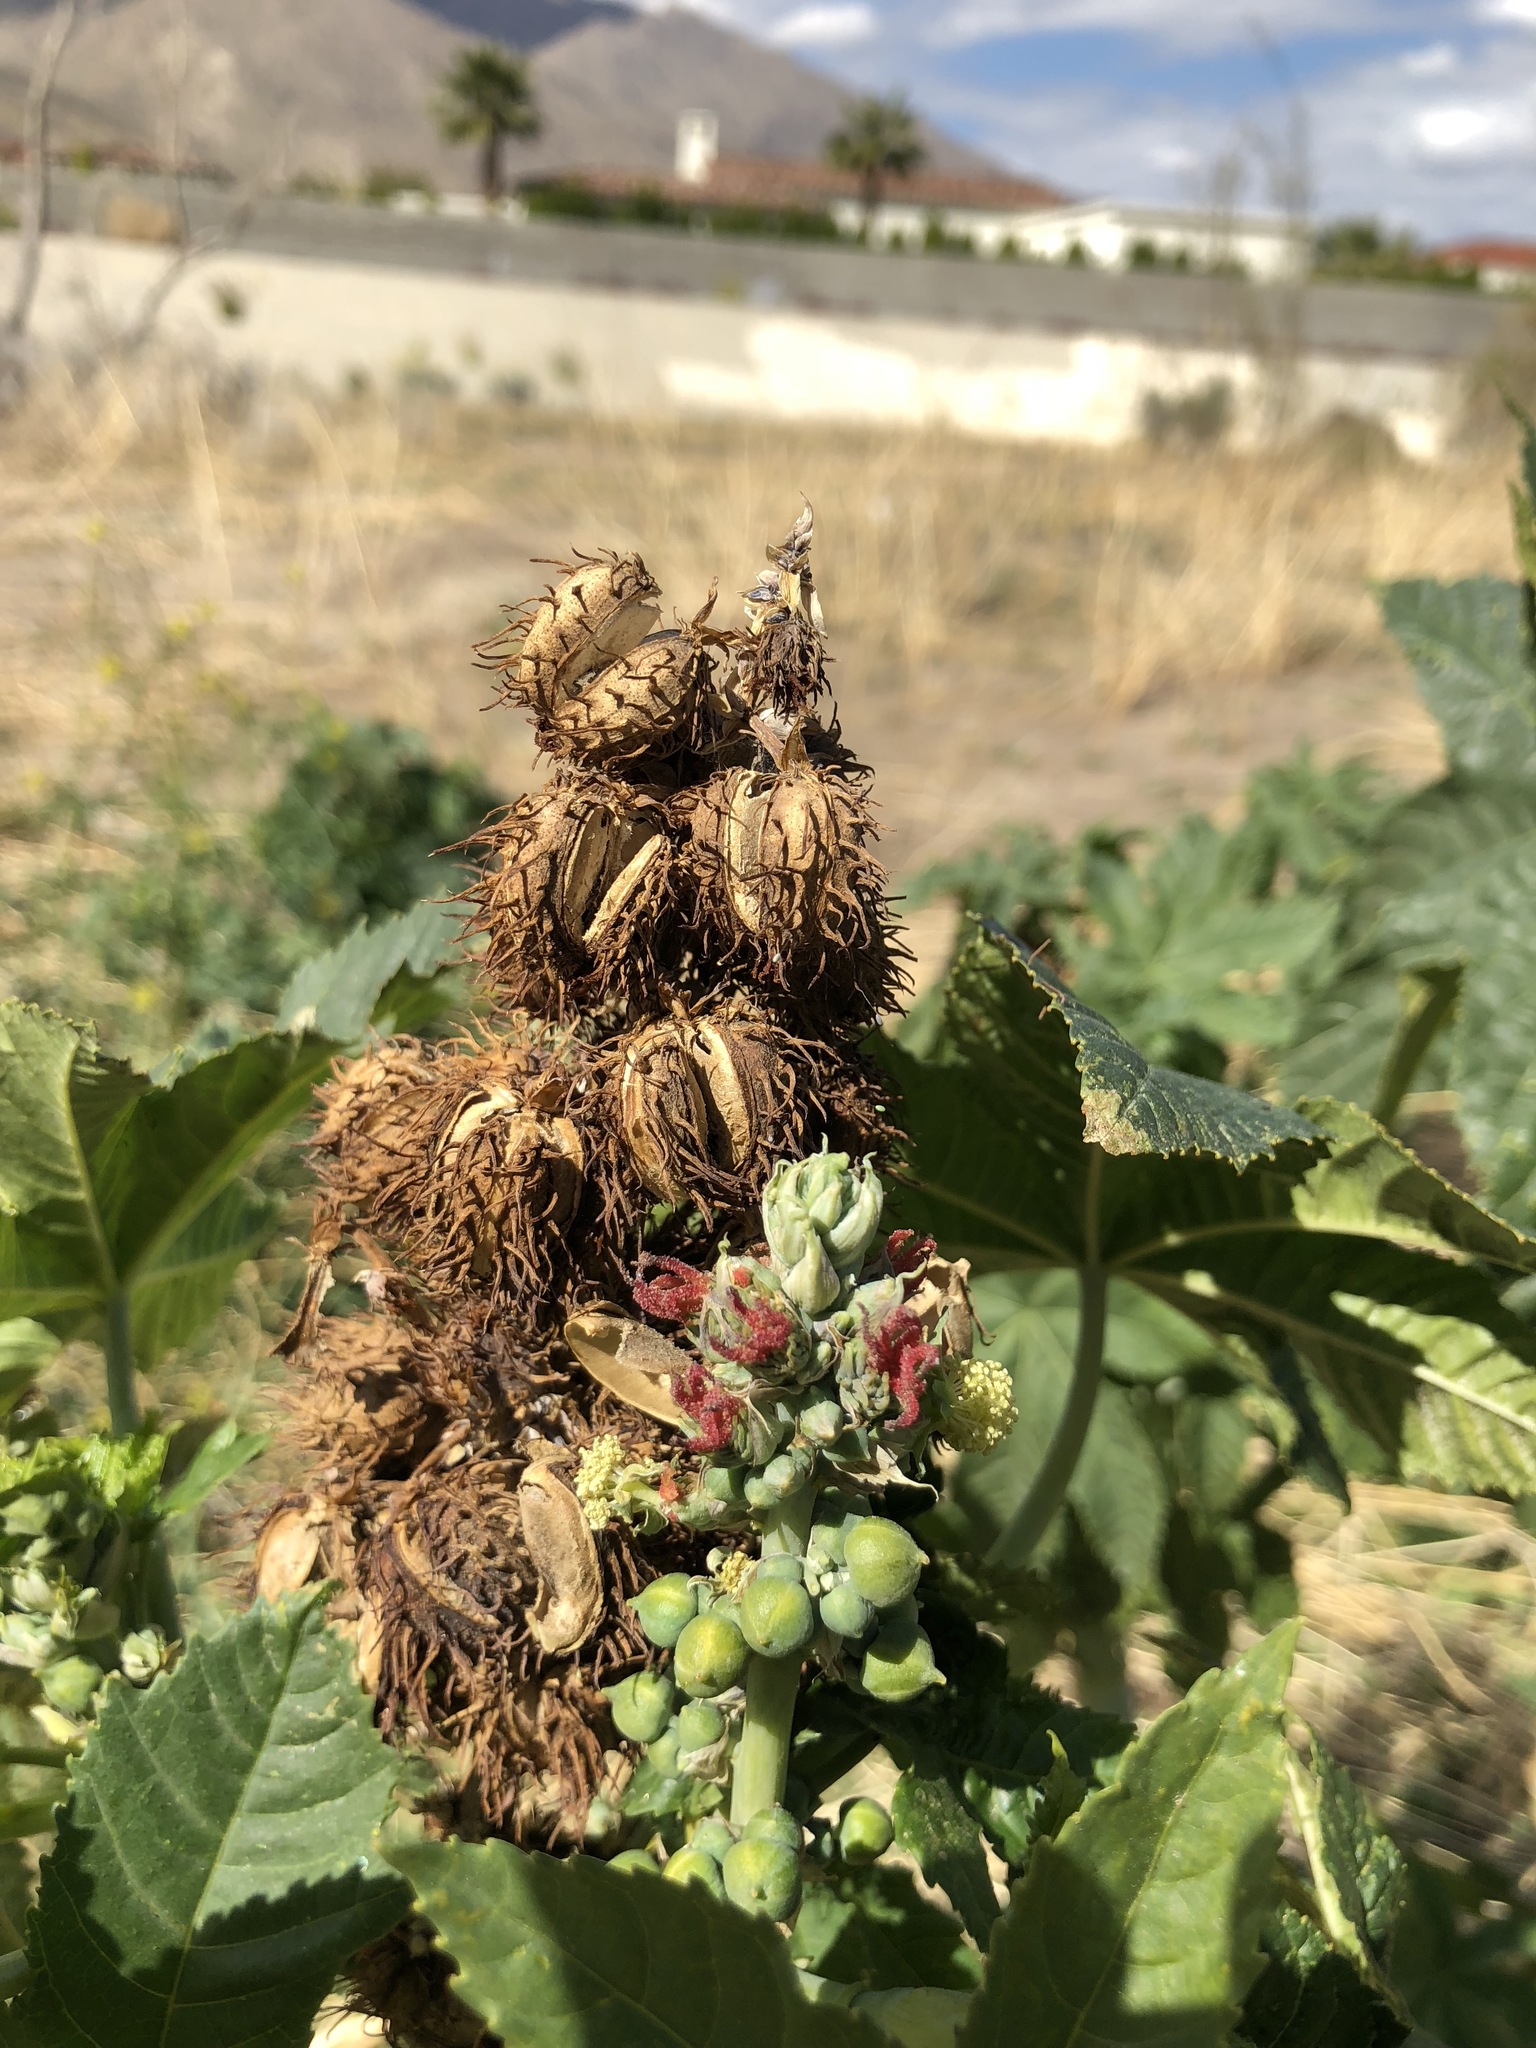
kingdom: Plantae
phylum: Tracheophyta
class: Magnoliopsida
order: Malpighiales
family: Euphorbiaceae
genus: Ricinus
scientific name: Ricinus communis
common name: Castor-oil-plant
